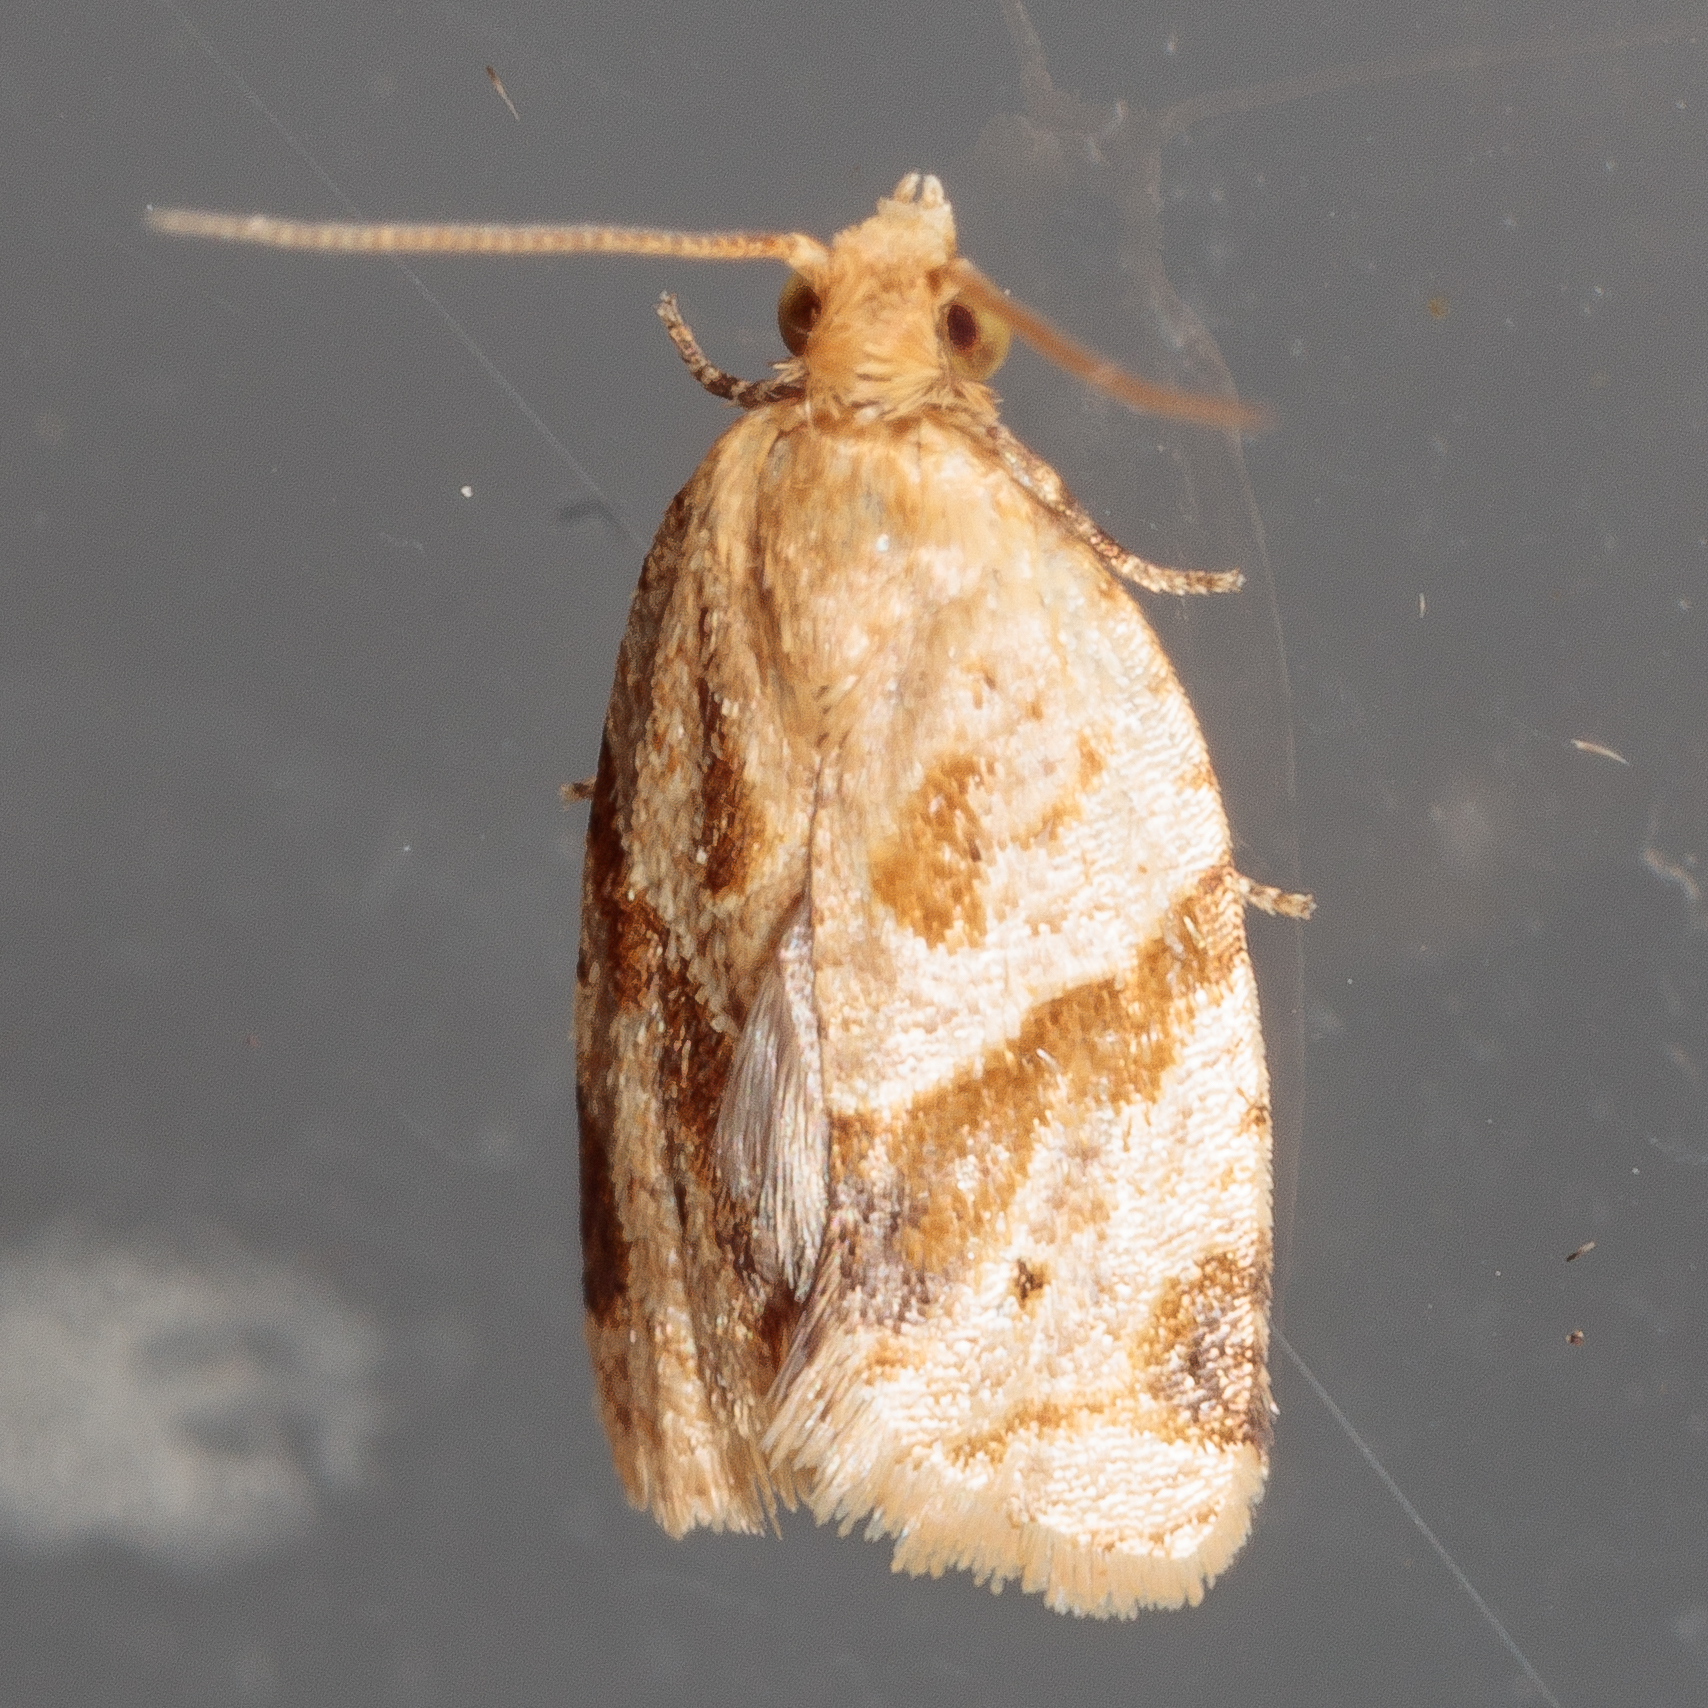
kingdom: Animalia
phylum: Arthropoda
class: Insecta
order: Lepidoptera
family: Tortricidae
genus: Clepsis
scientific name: Clepsis peritana
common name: Garden tortrix
